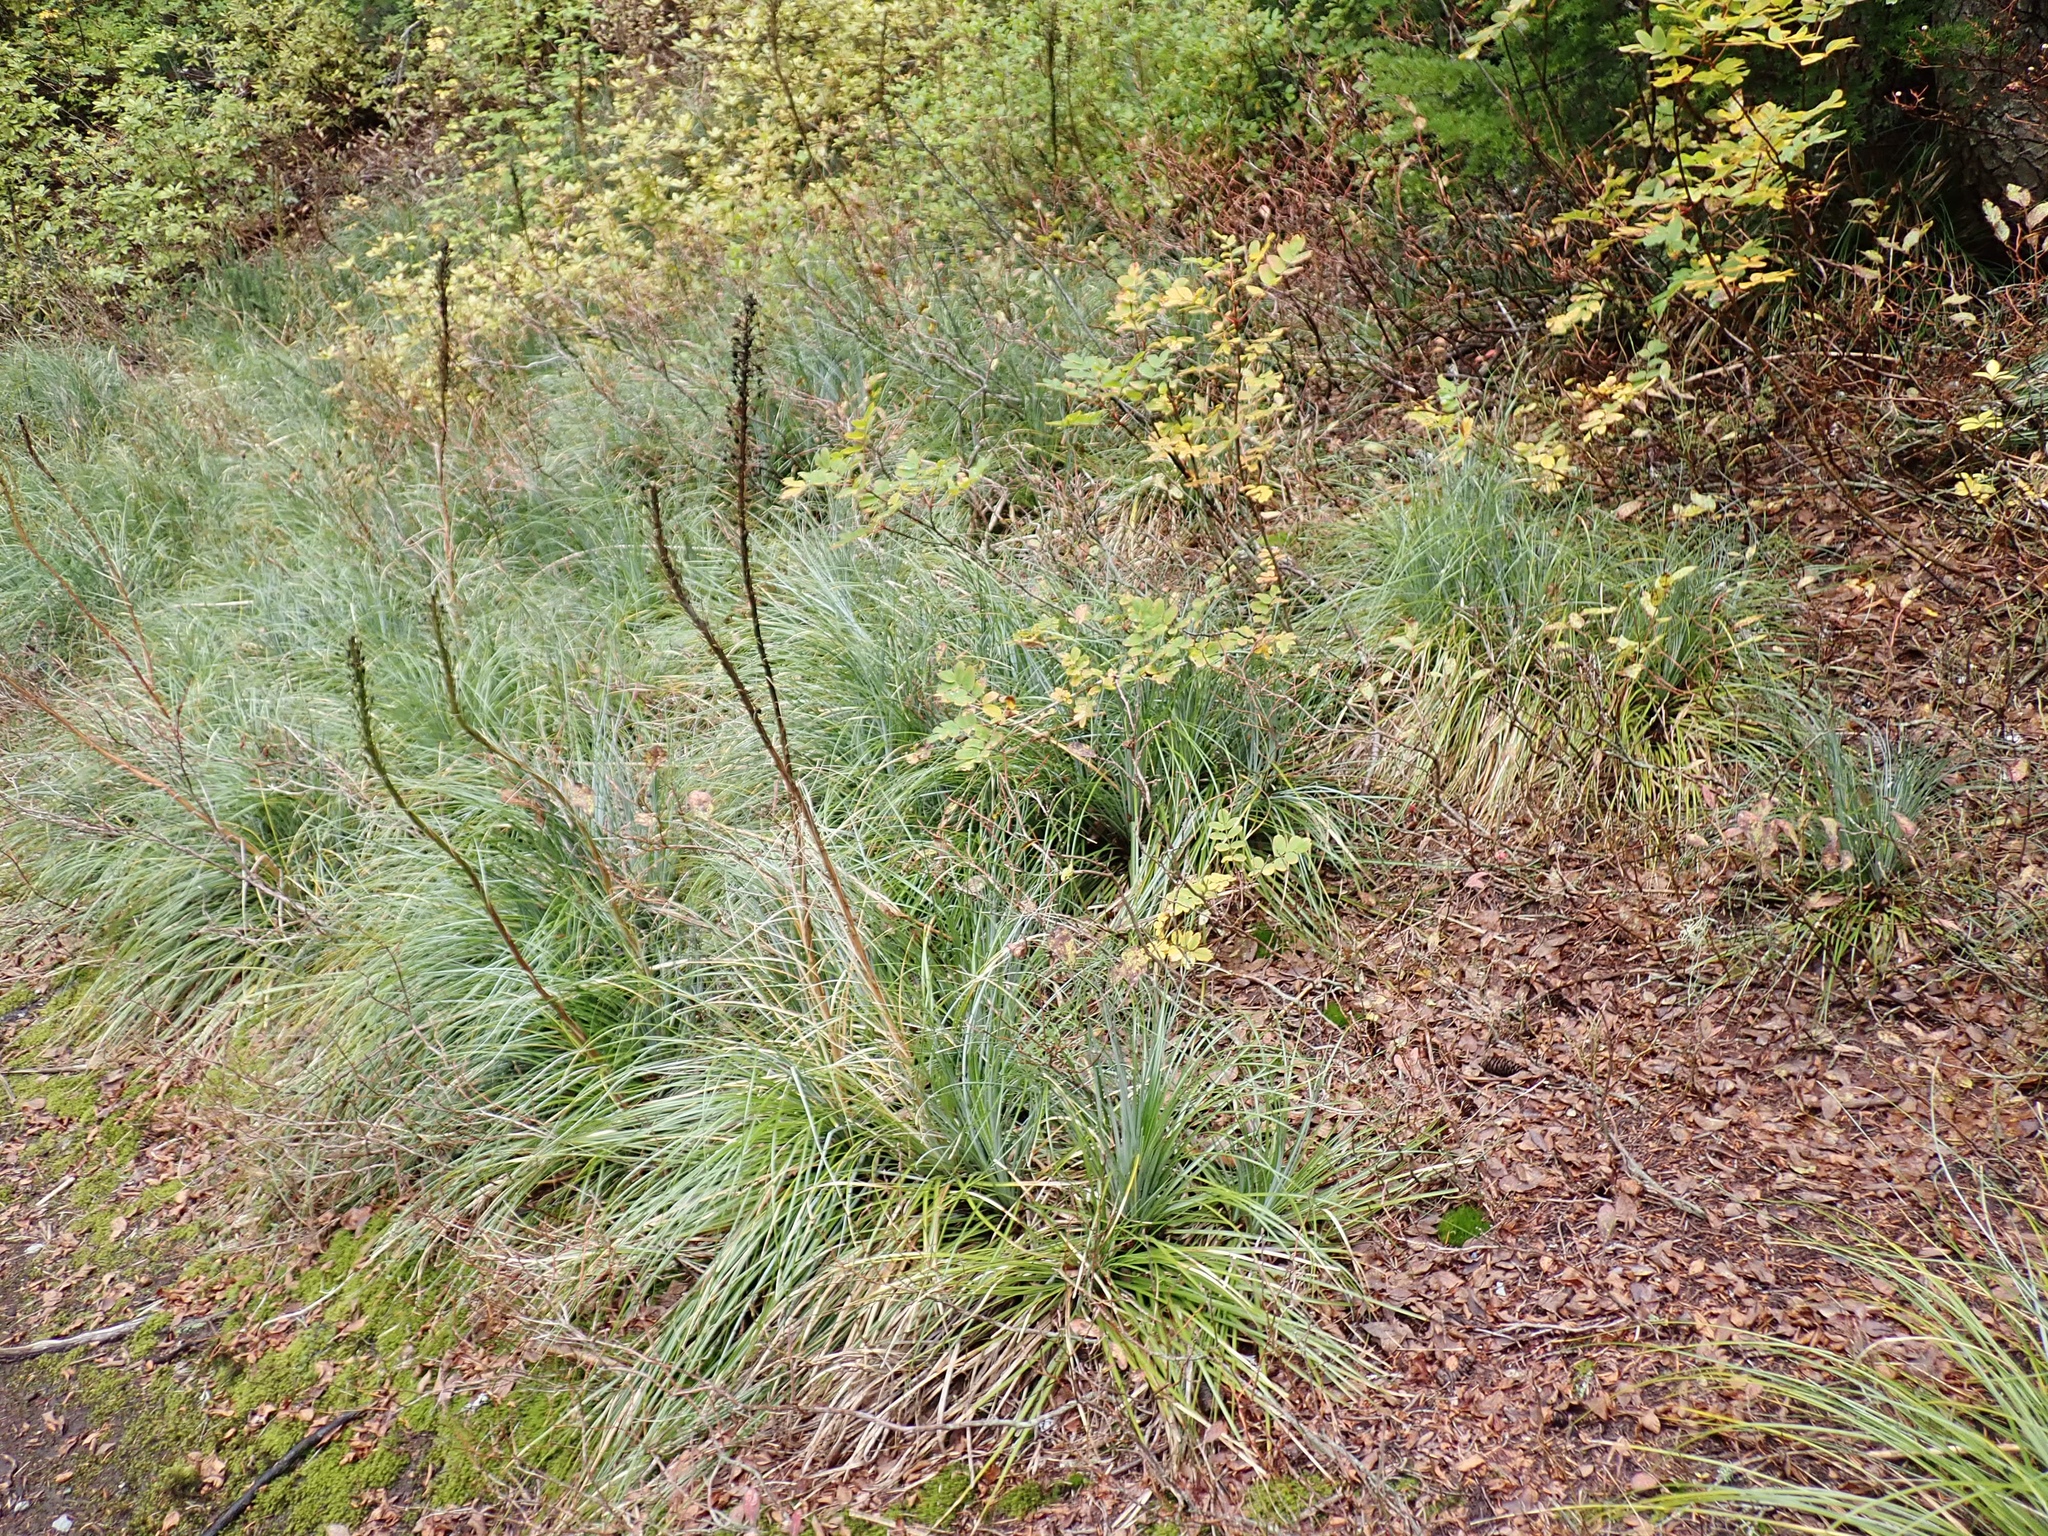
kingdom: Plantae
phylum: Tracheophyta
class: Liliopsida
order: Liliales
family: Melanthiaceae
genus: Xerophyllum
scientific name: Xerophyllum tenax
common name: Bear-grass
